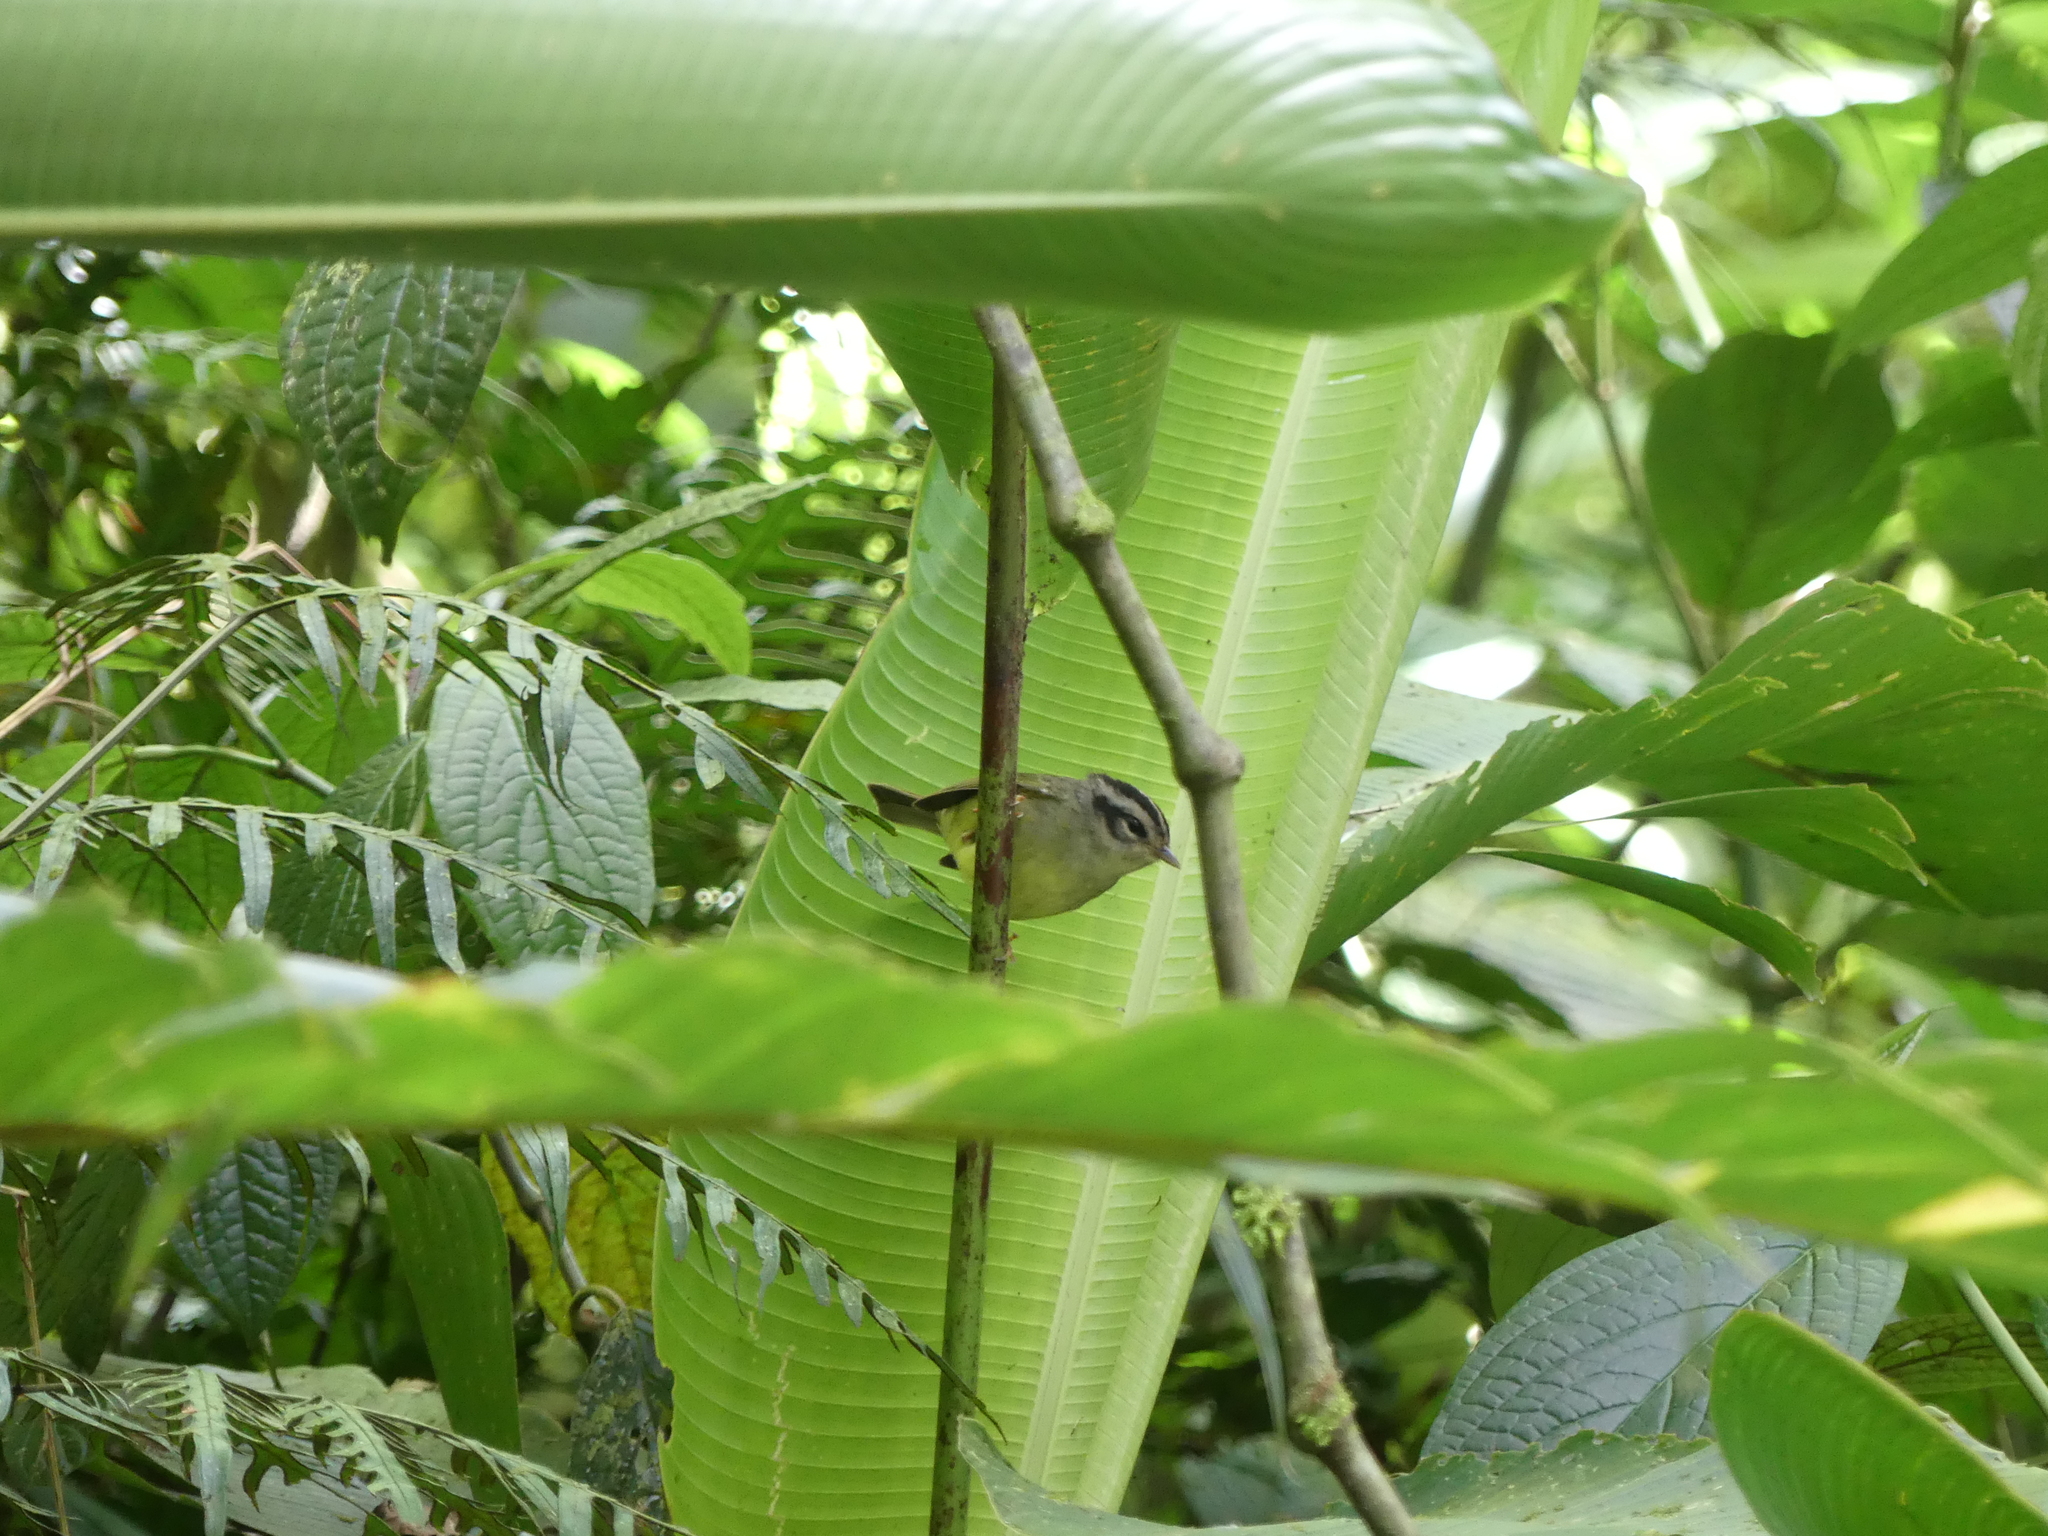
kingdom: Animalia
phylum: Chordata
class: Aves
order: Passeriformes
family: Parulidae
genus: Basileuterus
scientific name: Basileuterus melanotis
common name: Black-eared warbler
